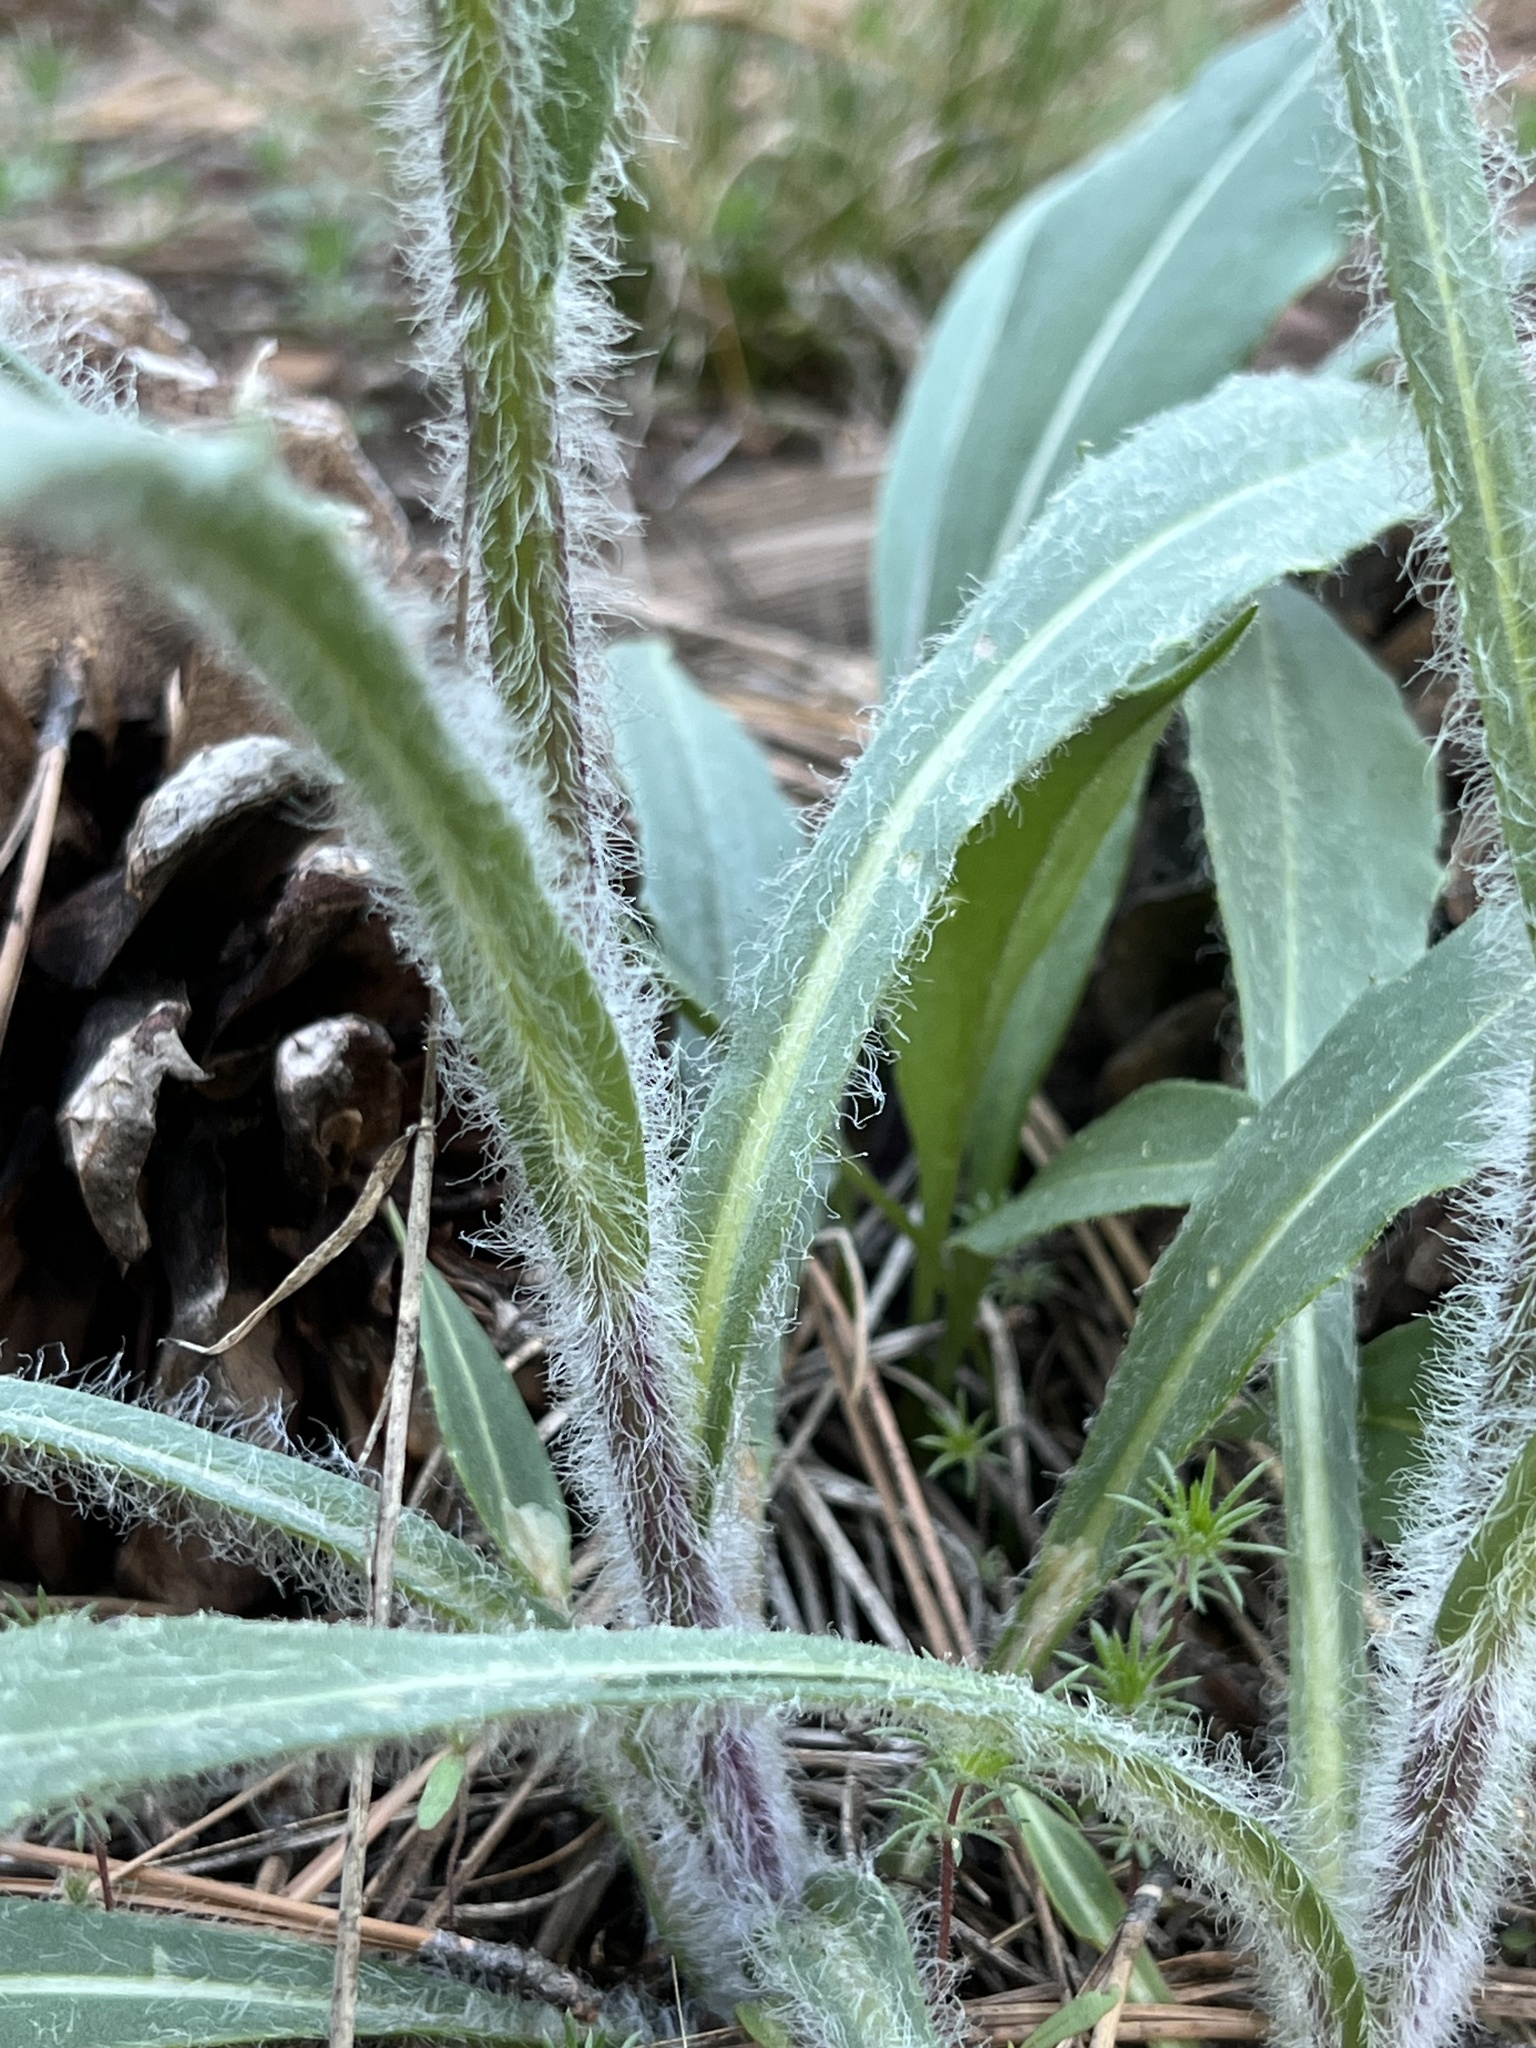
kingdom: Plantae
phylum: Tracheophyta
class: Magnoliopsida
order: Asterales
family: Asteraceae
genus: Senecio
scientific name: Senecio integerrimus
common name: Gaugeplant
